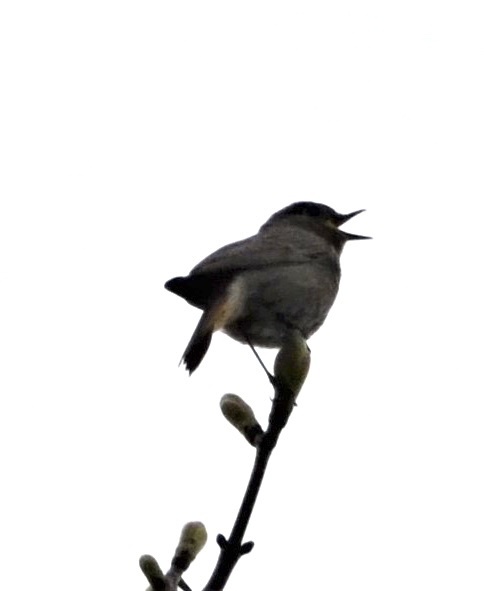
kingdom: Animalia
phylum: Chordata
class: Aves
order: Passeriformes
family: Muscicapidae
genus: Phoenicurus
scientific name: Phoenicurus ochruros
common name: Black redstart
